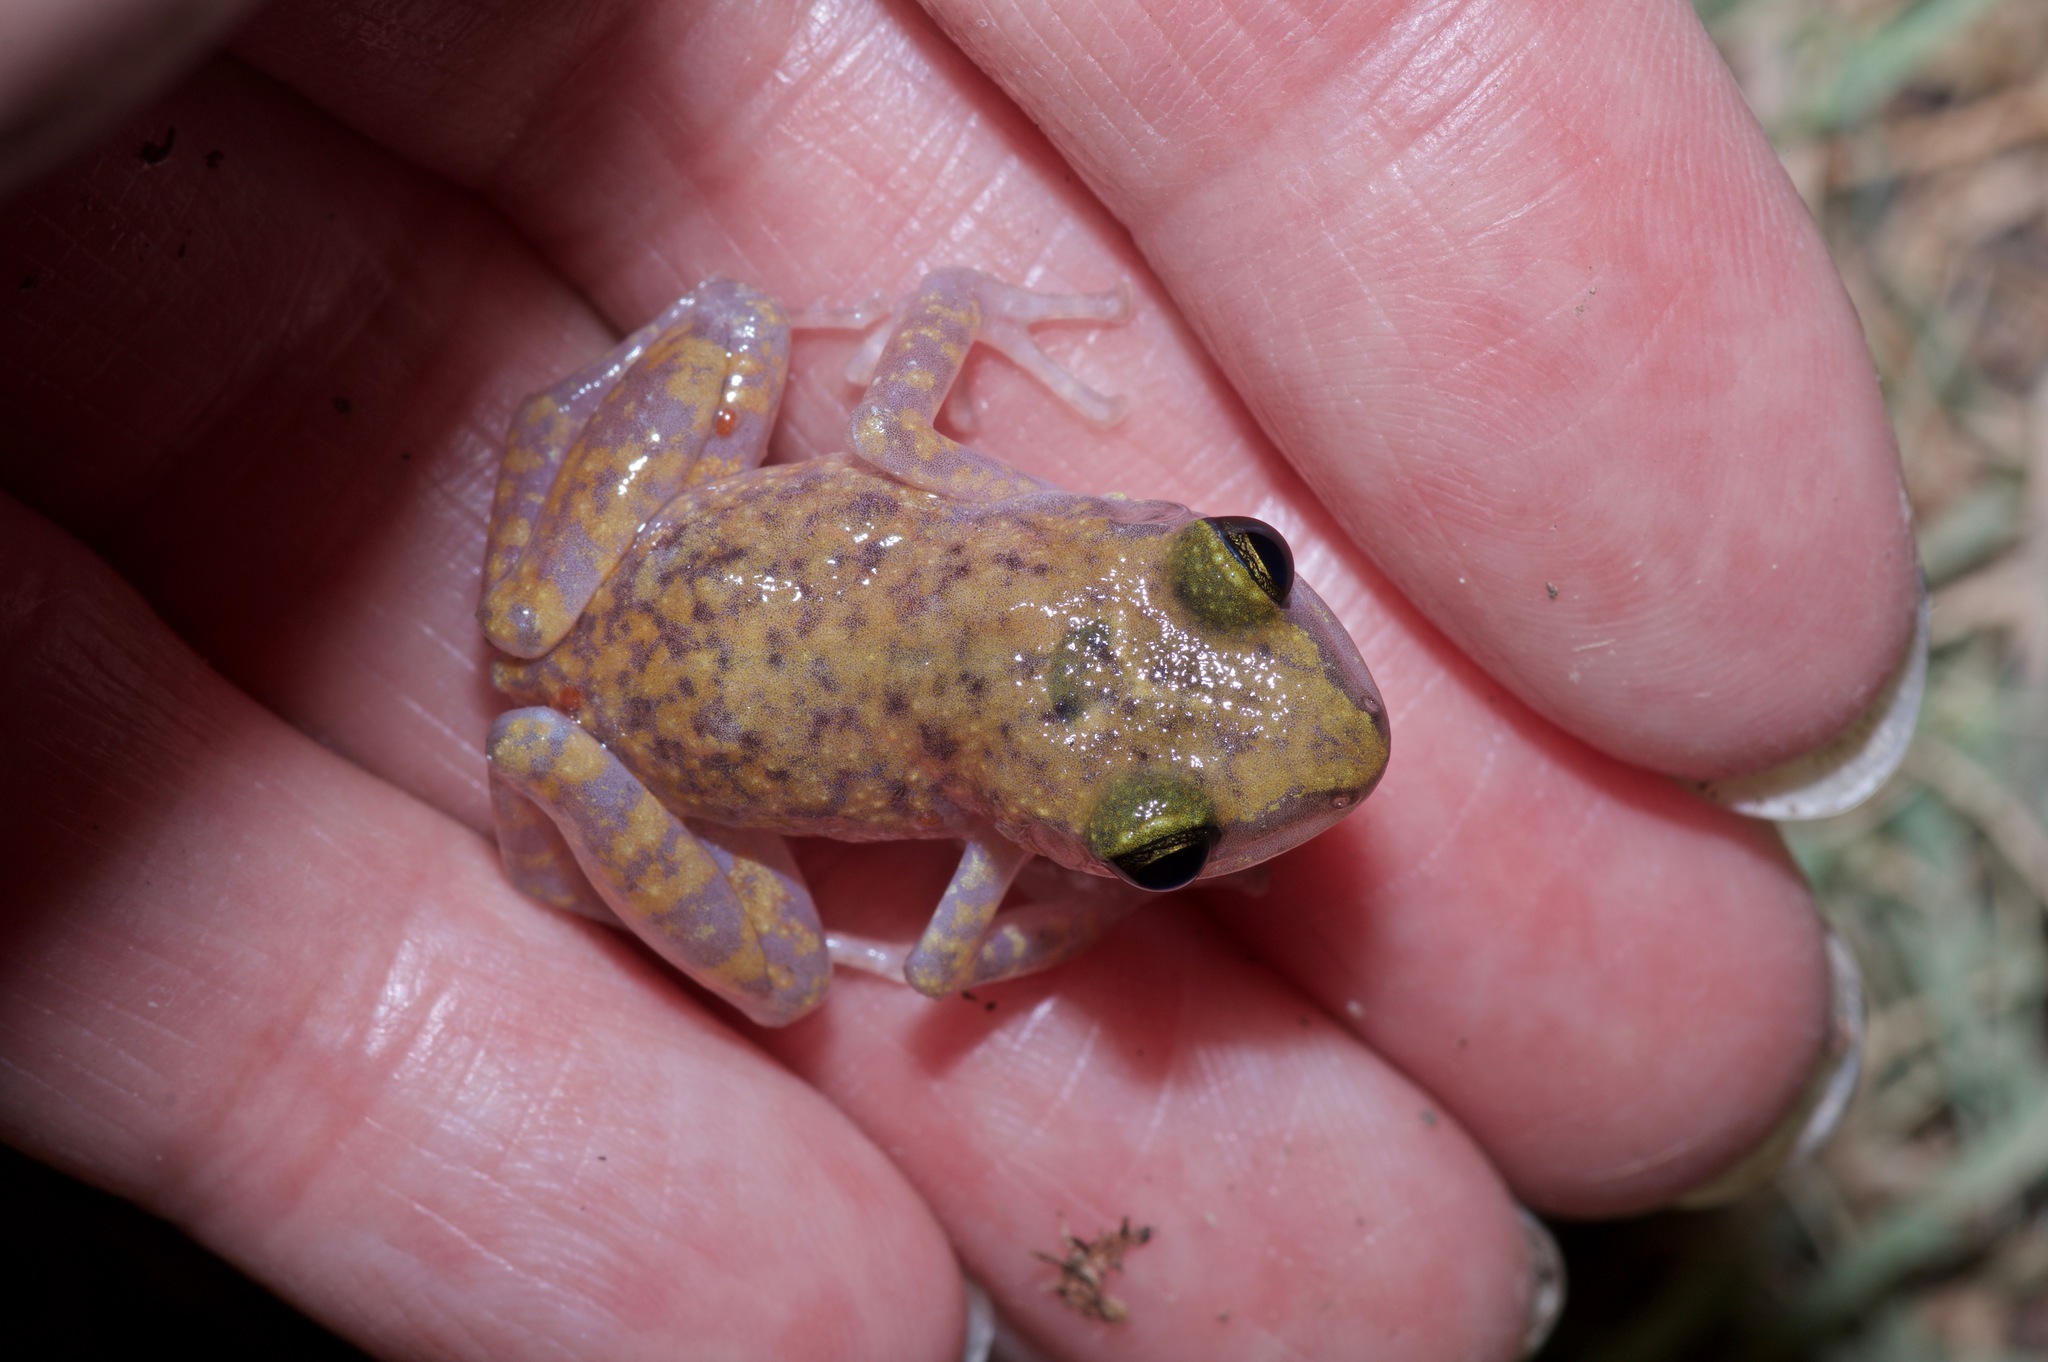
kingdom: Animalia
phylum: Chordata
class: Amphibia
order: Anura
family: Eleutherodactylidae
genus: Eleutherodactylus
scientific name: Eleutherodactylus marnockii
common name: Cliff chirping frog
